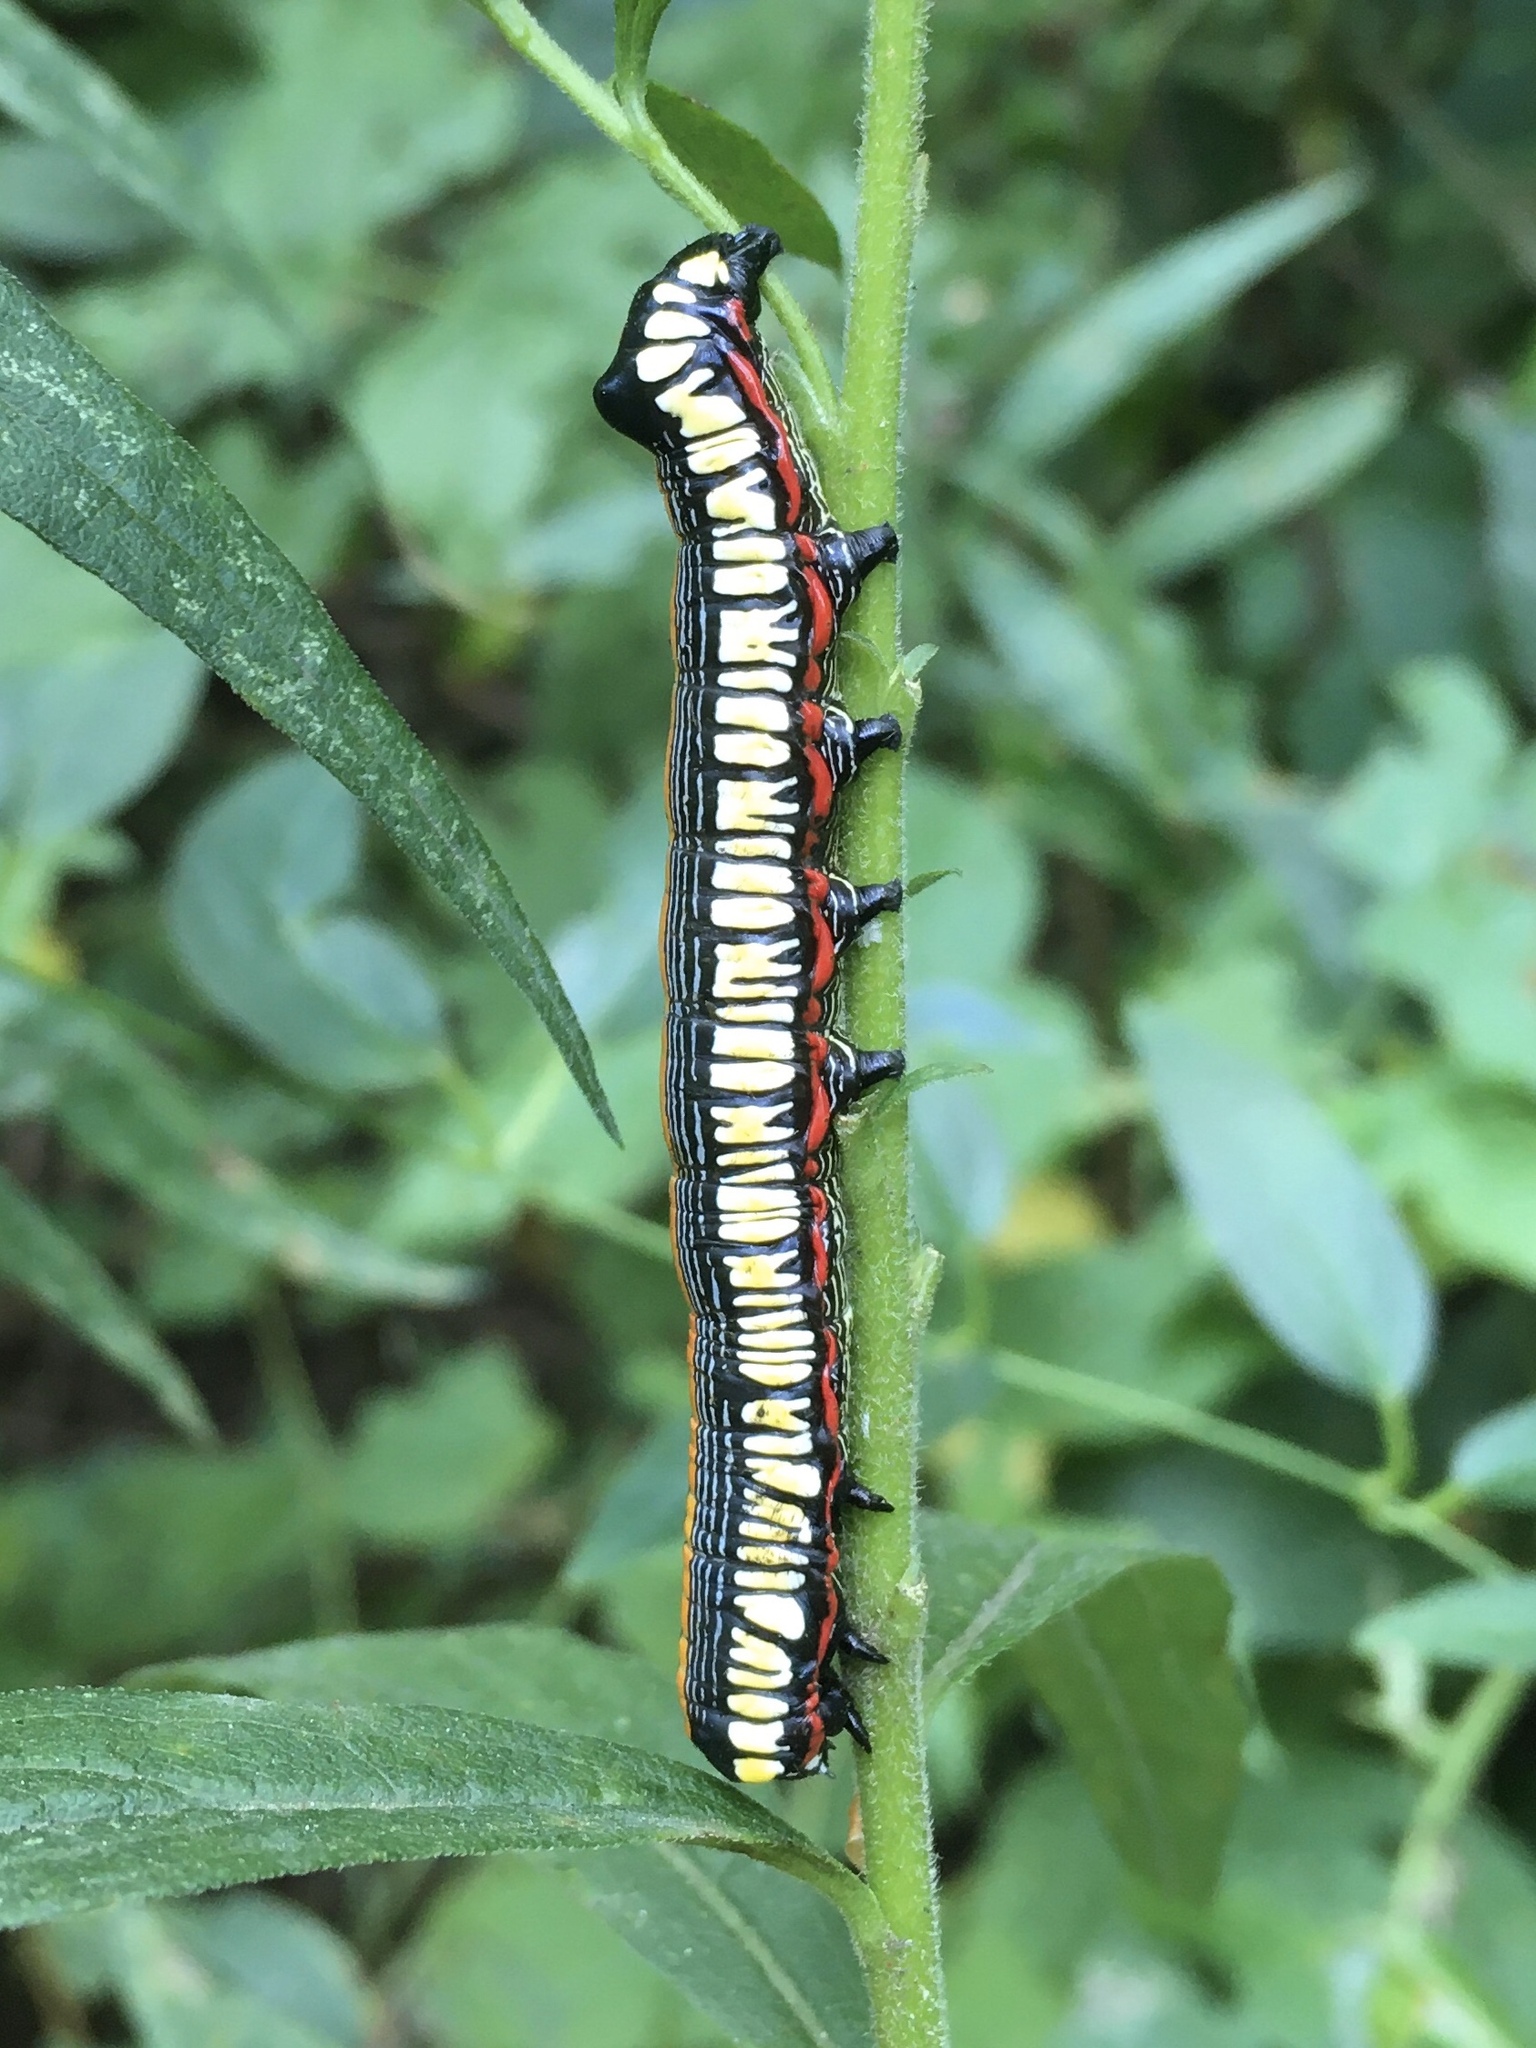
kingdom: Animalia
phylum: Arthropoda
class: Insecta
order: Lepidoptera
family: Noctuidae
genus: Cucullia
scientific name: Cucullia convexipennis
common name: Brown-hooded owlet
